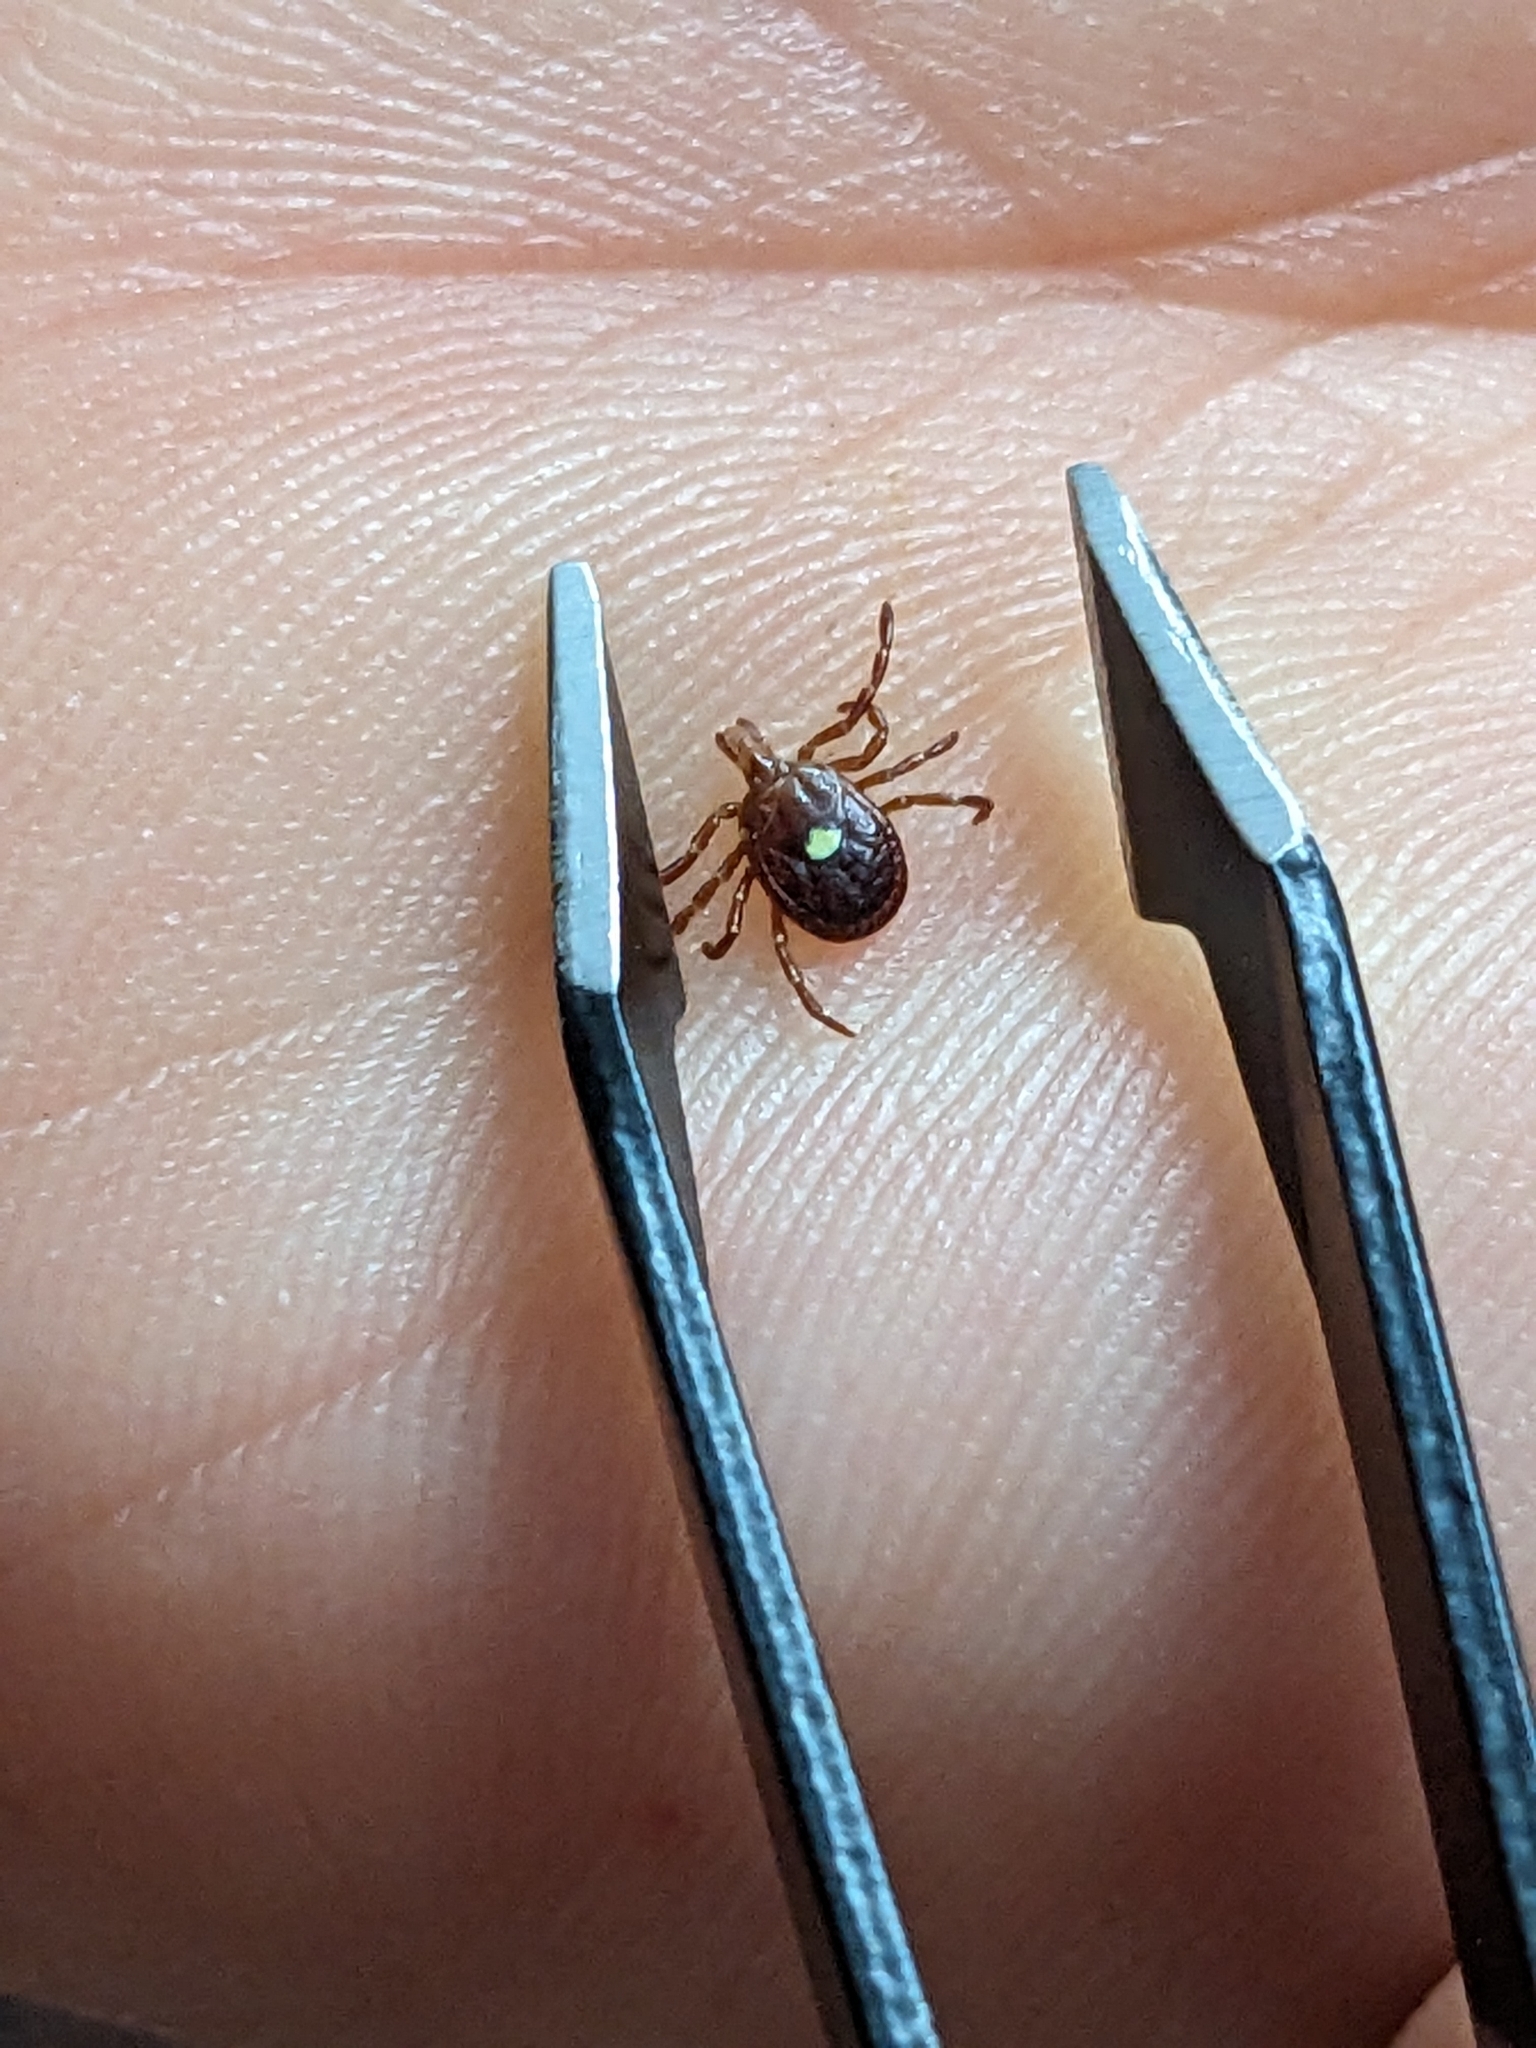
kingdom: Animalia
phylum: Arthropoda
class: Arachnida
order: Ixodida
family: Ixodidae
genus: Amblyomma
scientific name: Amblyomma americanum
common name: Lone star tick
